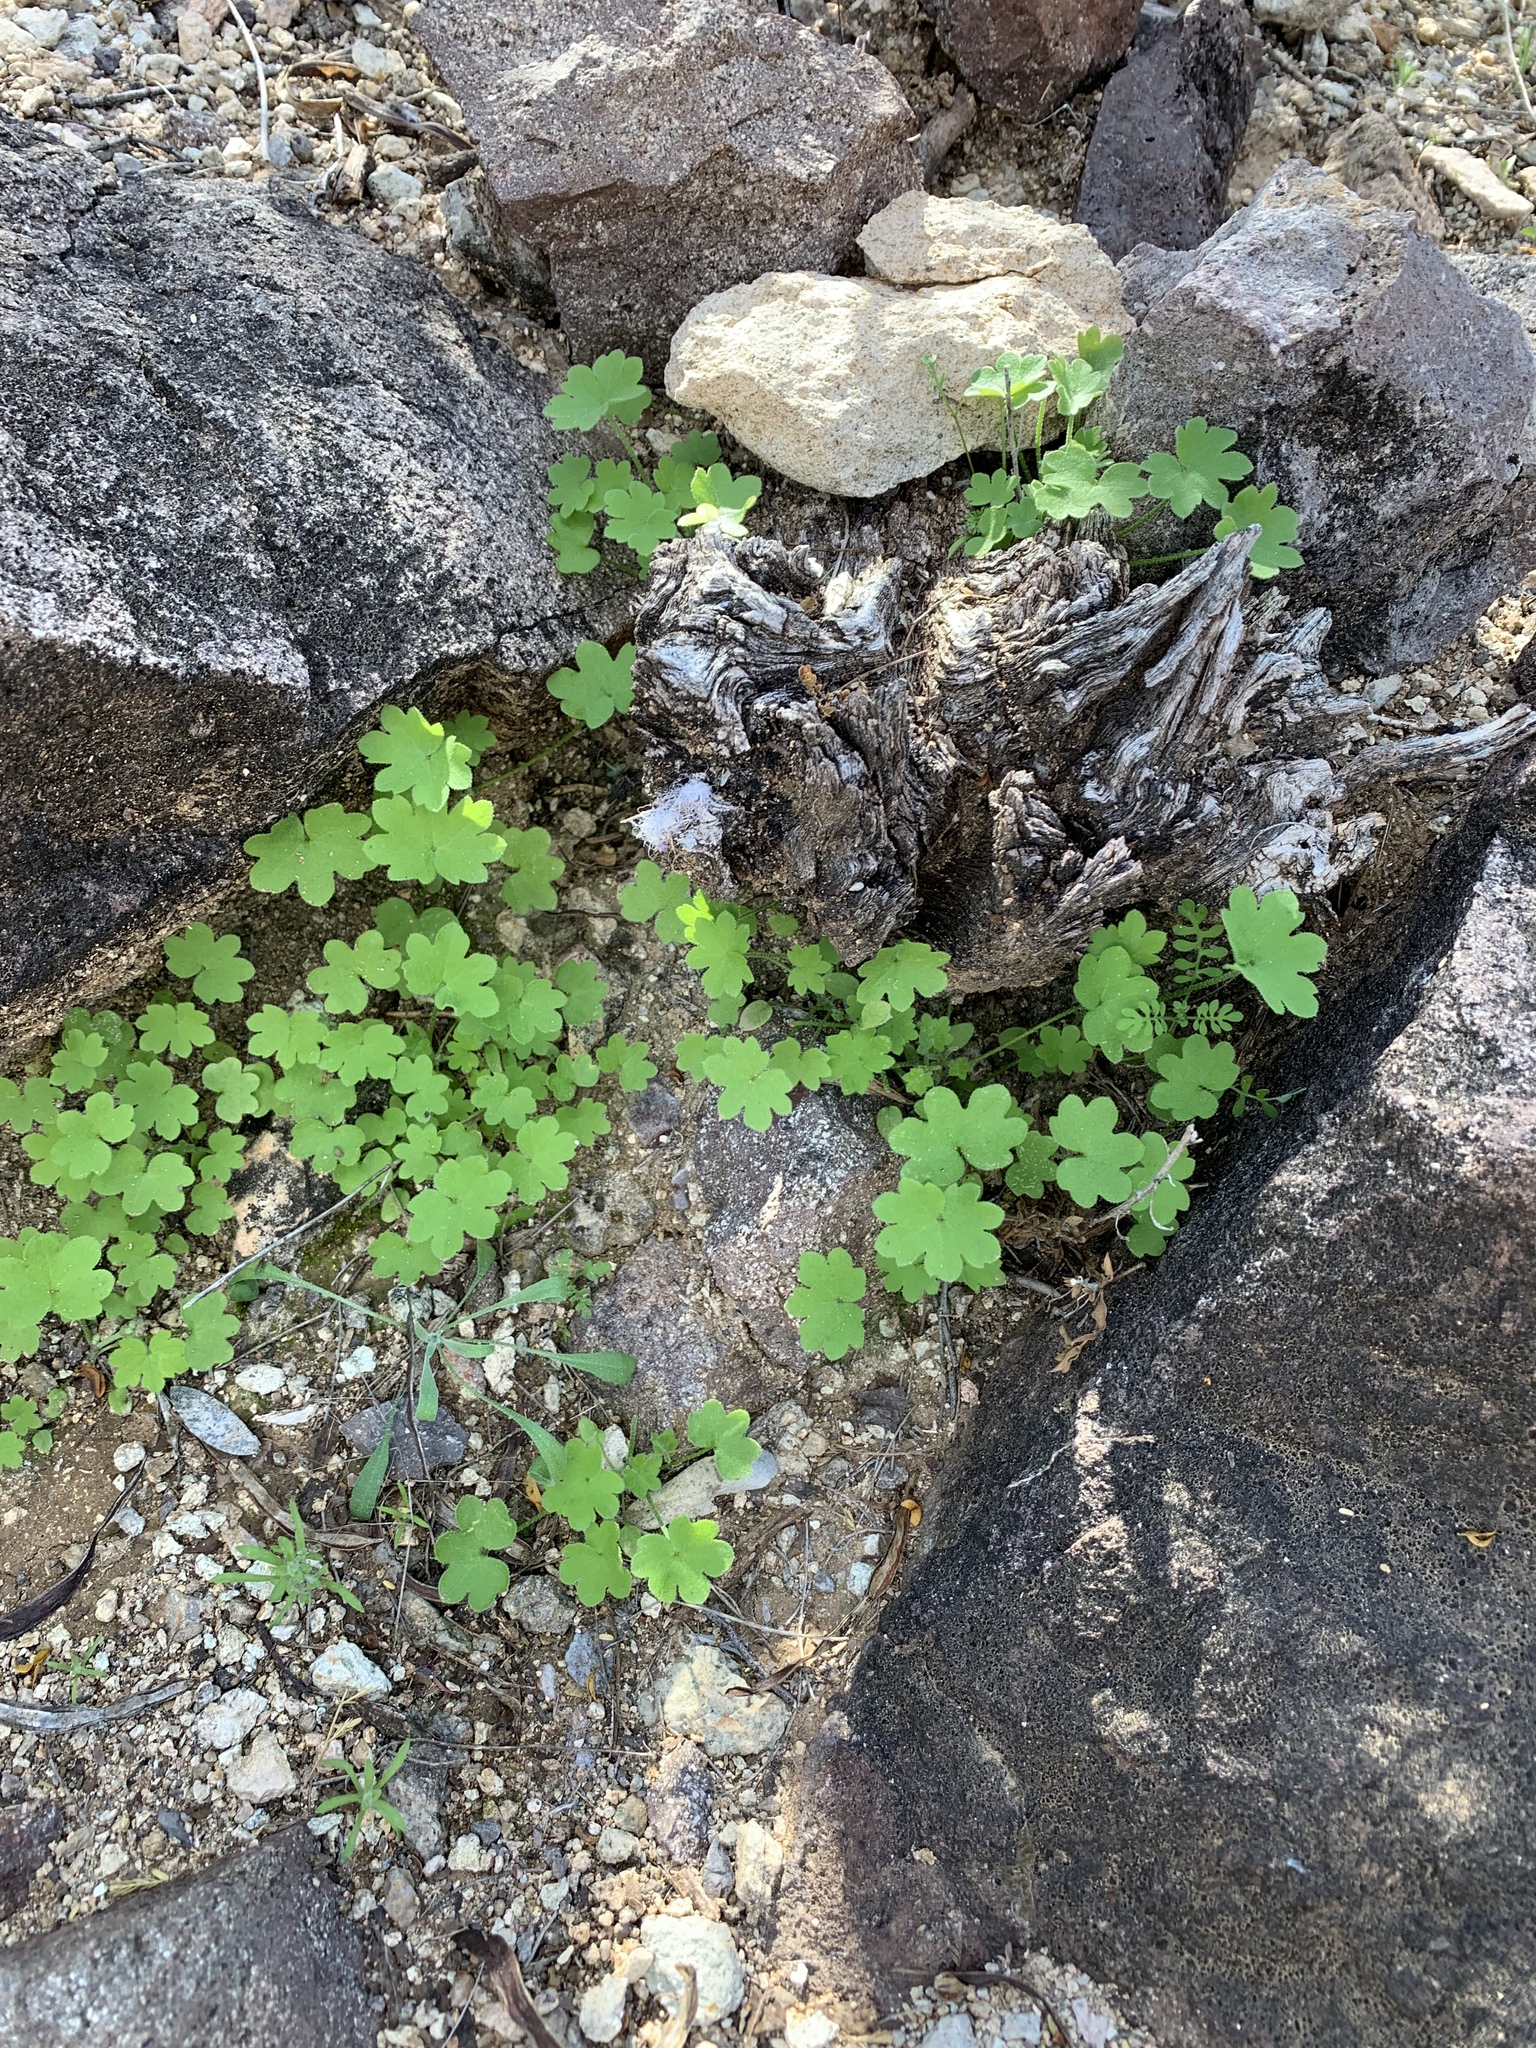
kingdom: Plantae
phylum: Tracheophyta
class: Magnoliopsida
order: Apiales
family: Apiaceae
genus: Bowlesia
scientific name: Bowlesia incana
